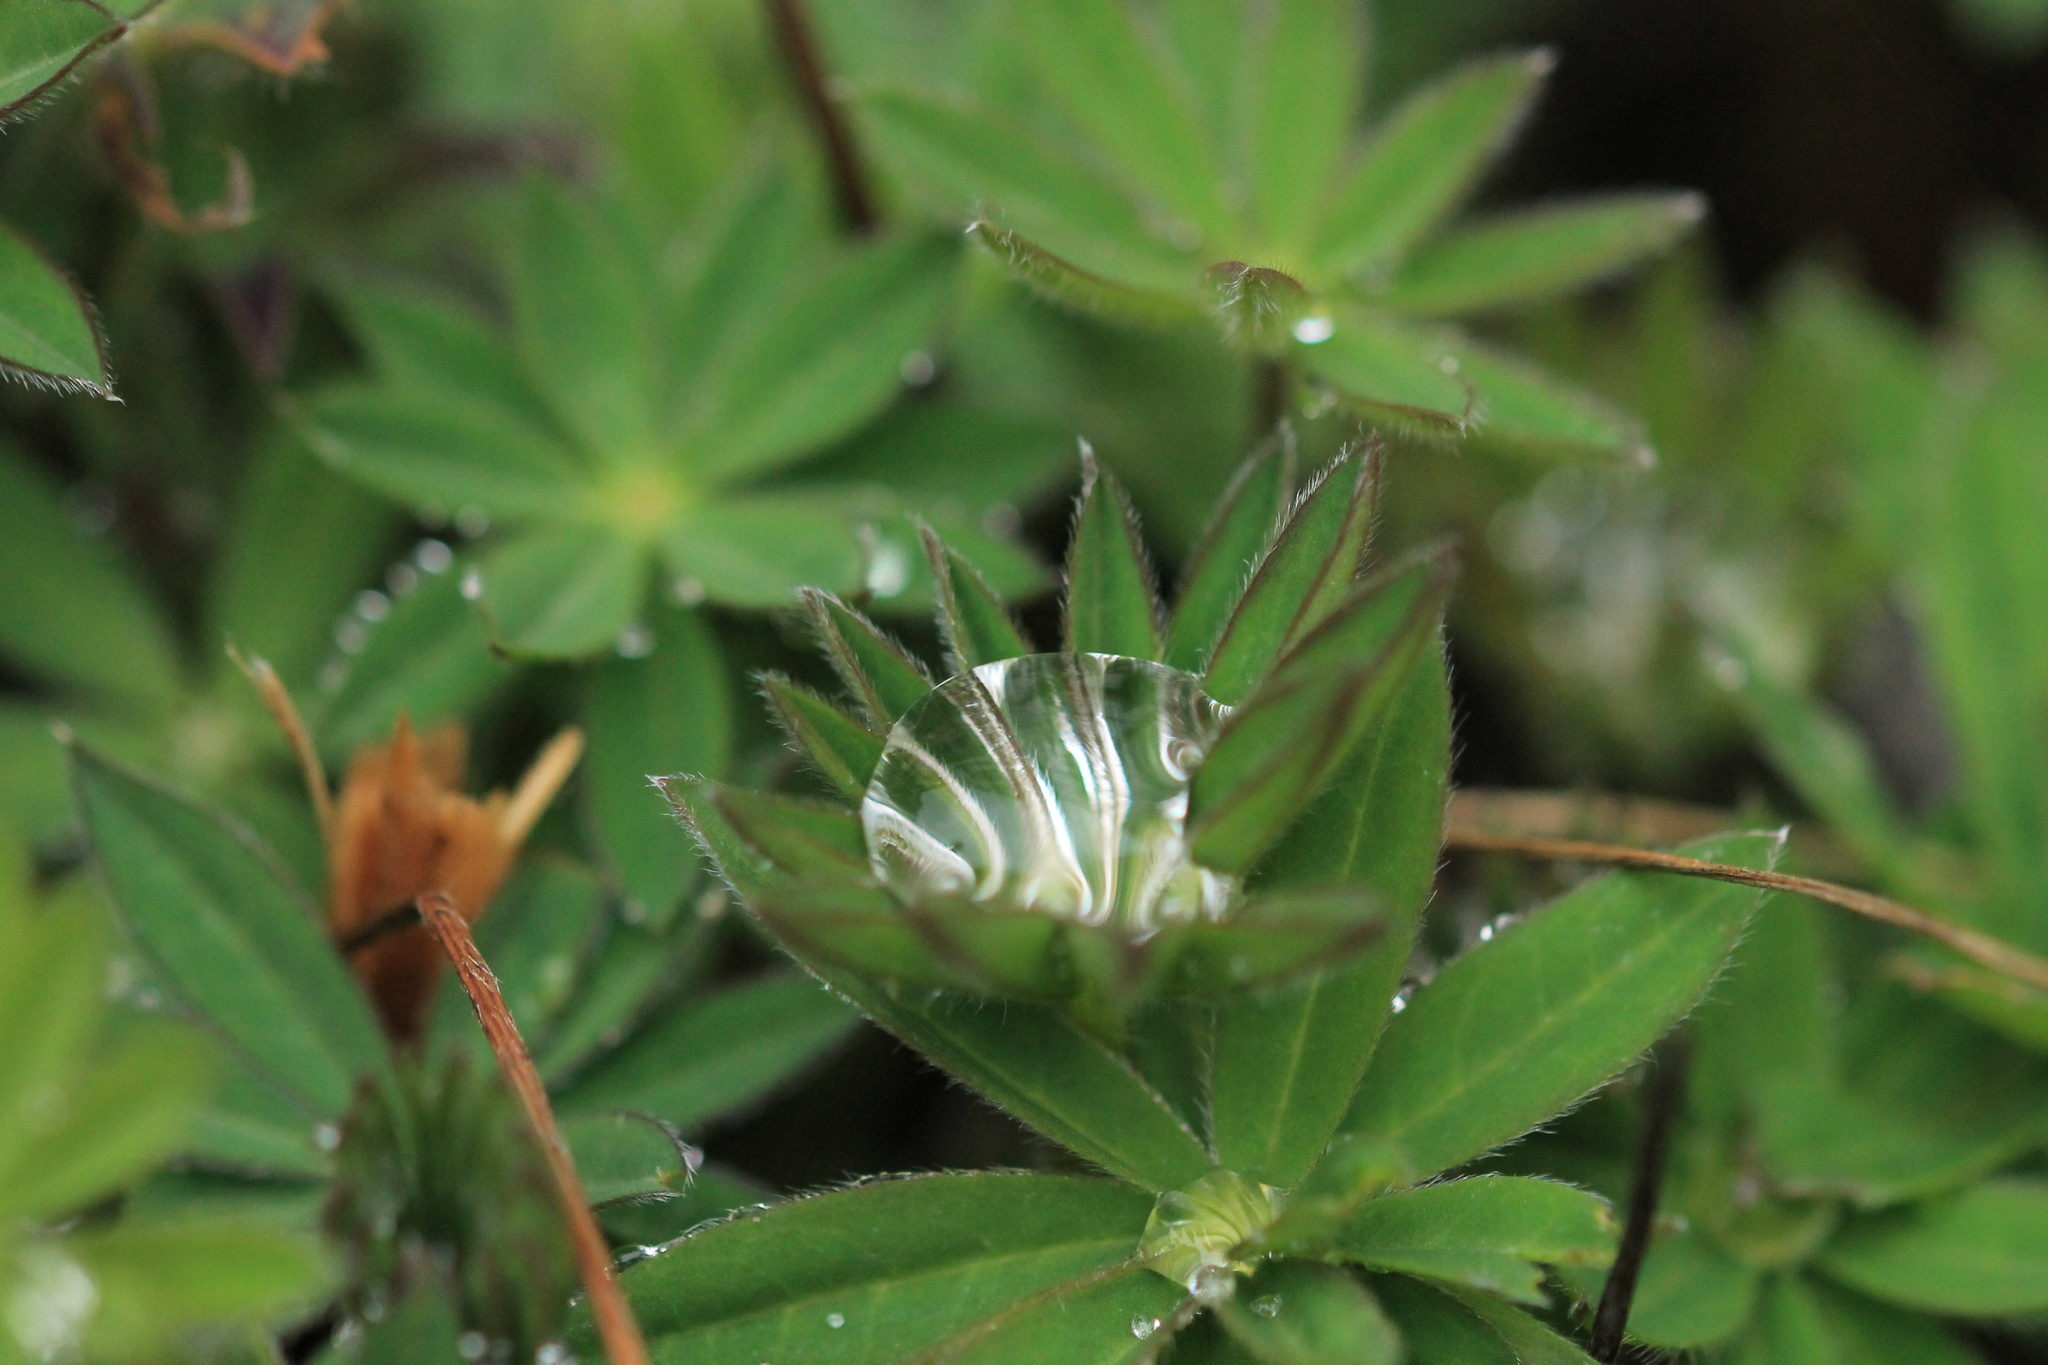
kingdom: Plantae
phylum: Tracheophyta
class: Magnoliopsida
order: Fabales
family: Fabaceae
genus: Lupinus
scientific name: Lupinus polyphyllus
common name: Garden lupin
